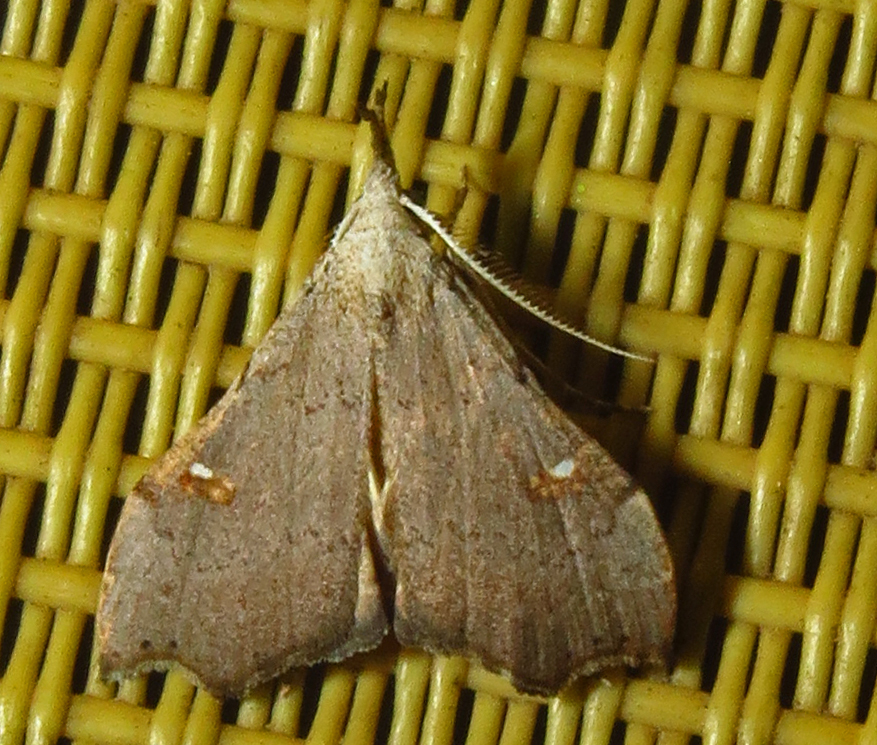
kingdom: Animalia
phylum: Arthropoda
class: Insecta
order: Lepidoptera
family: Erebidae
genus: Redectis
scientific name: Redectis vitrea
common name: White-spotted redectis
